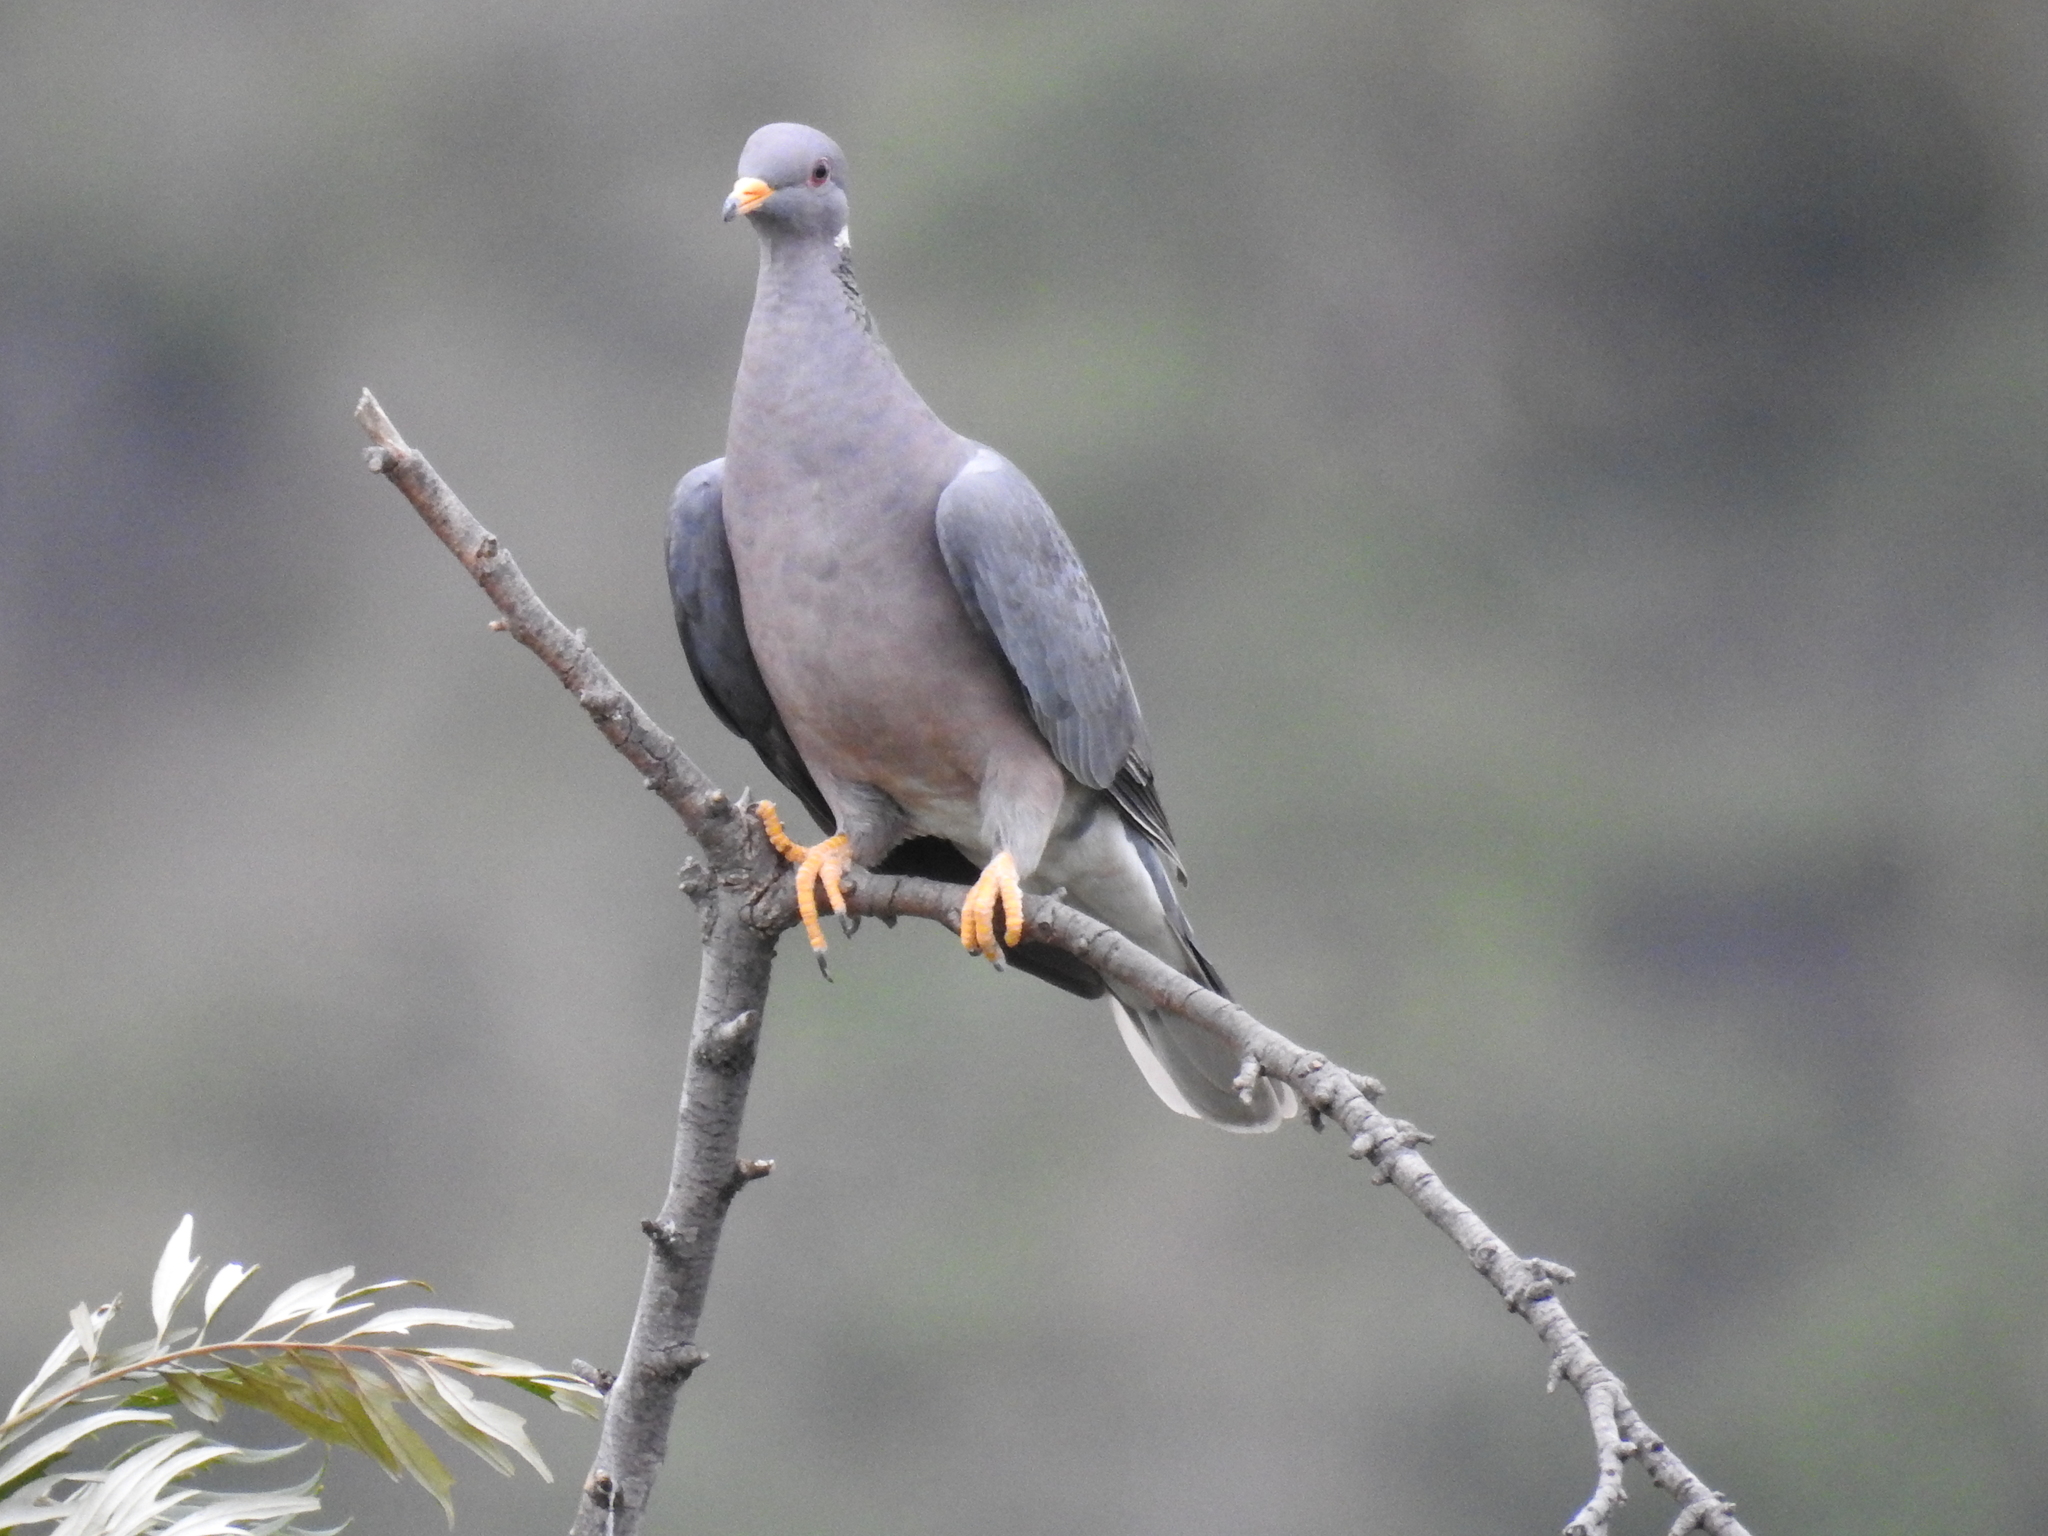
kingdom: Animalia
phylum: Chordata
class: Aves
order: Columbiformes
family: Columbidae
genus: Patagioenas
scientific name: Patagioenas fasciata
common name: Band-tailed pigeon
